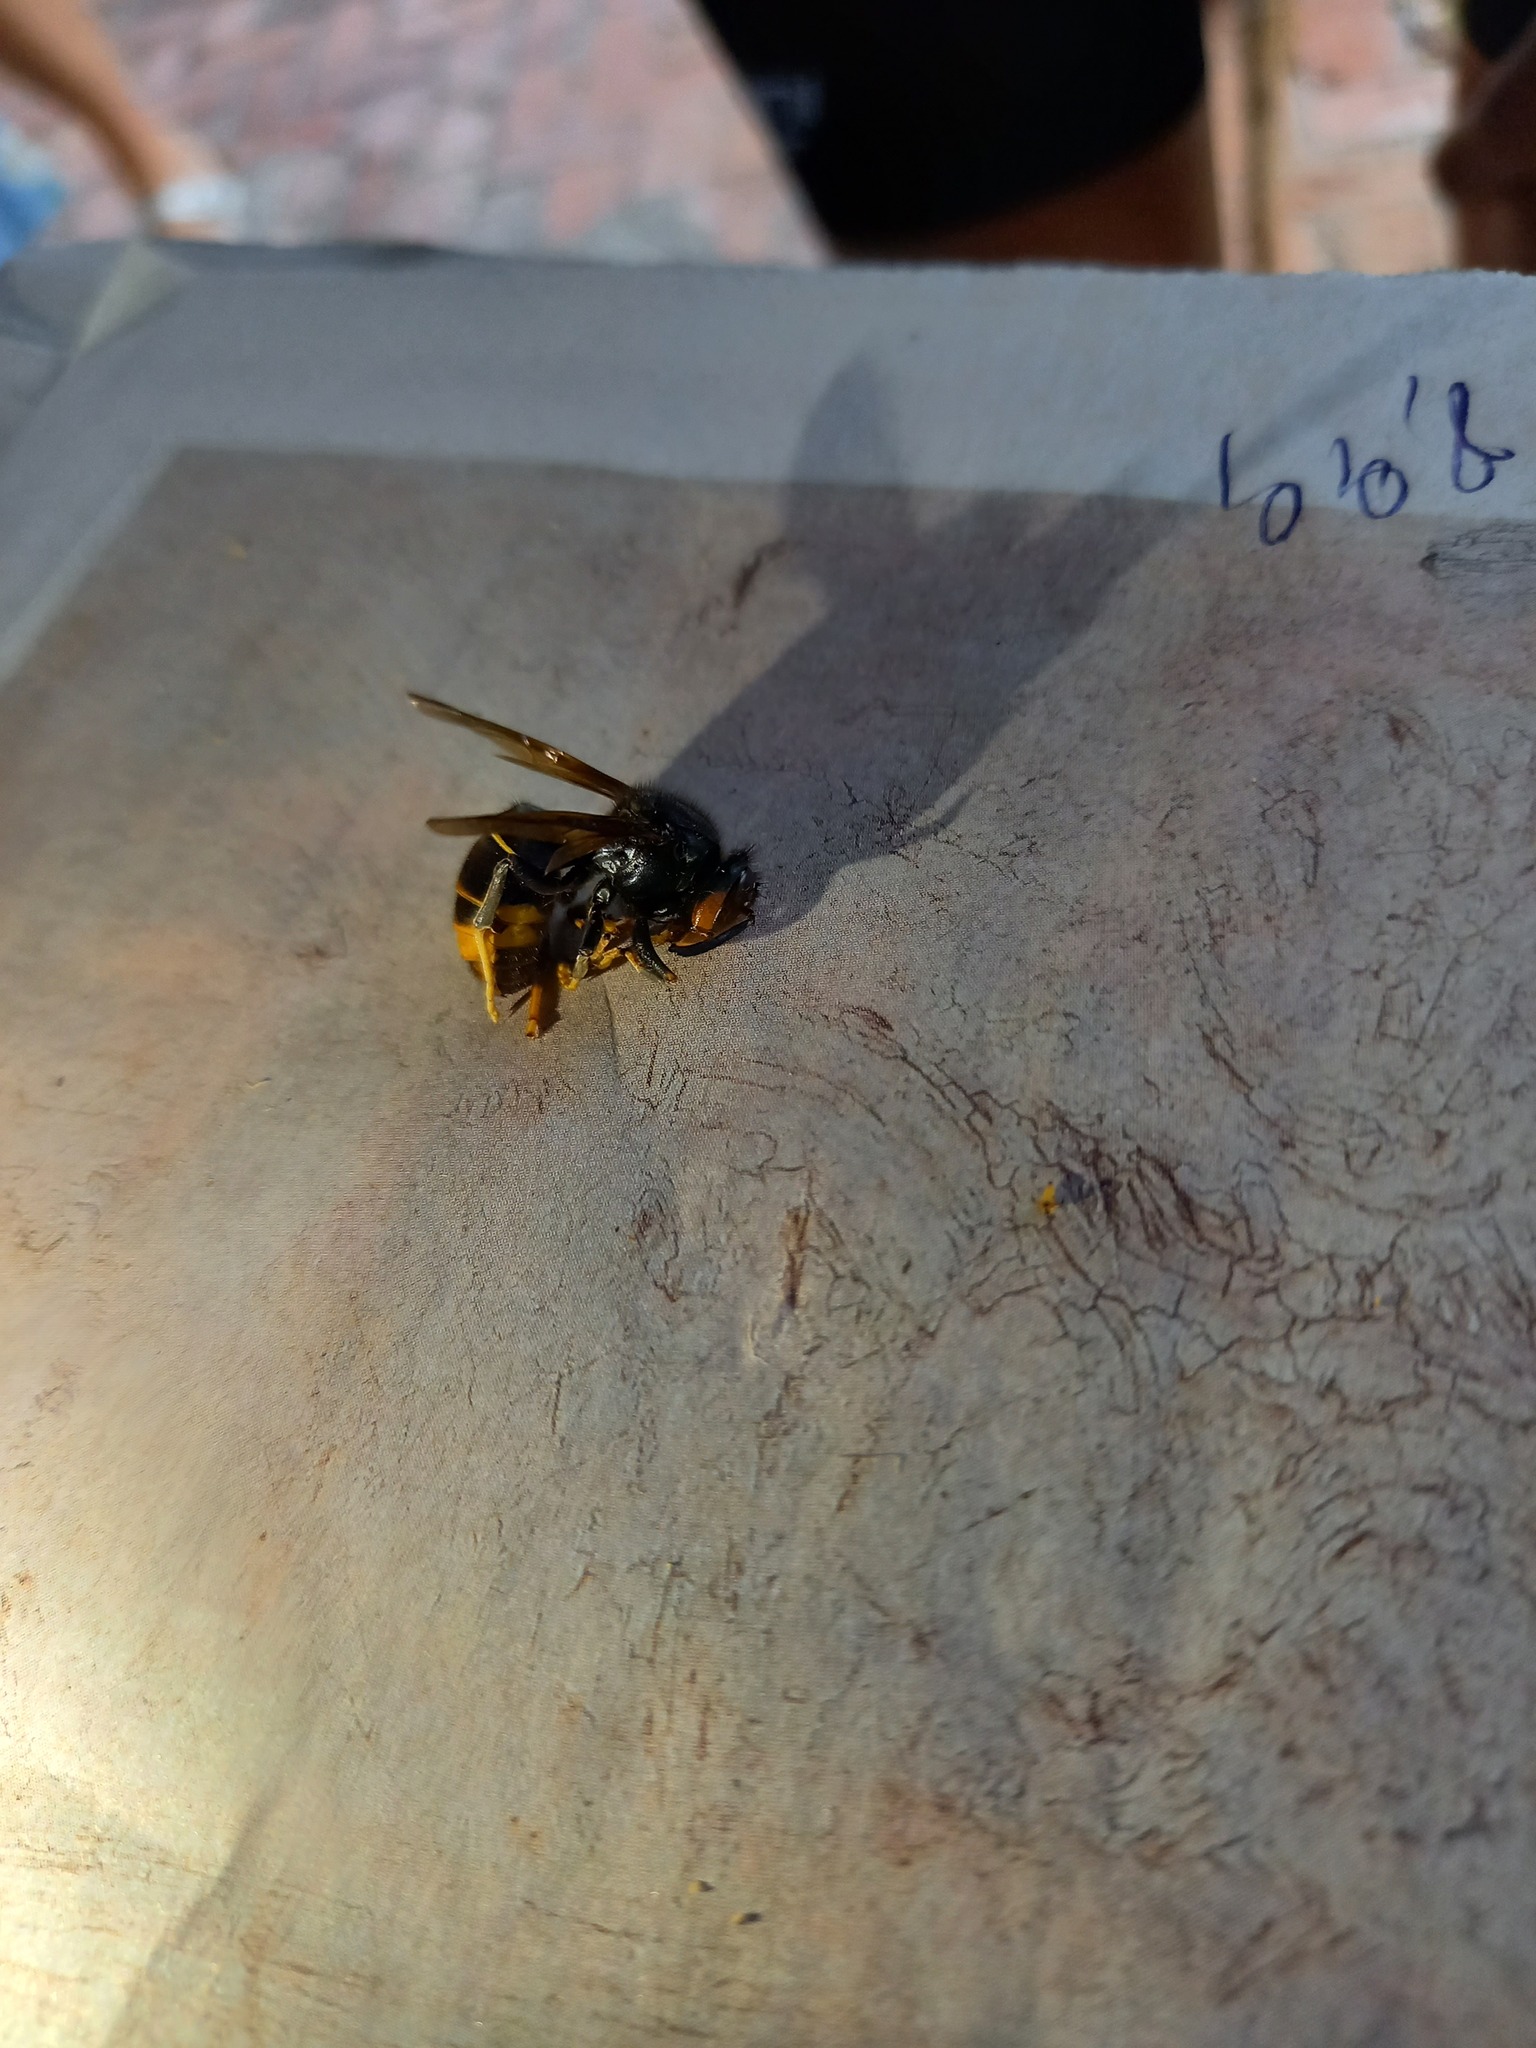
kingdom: Animalia
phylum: Arthropoda
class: Insecta
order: Hymenoptera
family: Vespidae
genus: Vespa
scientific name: Vespa velutina
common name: Asian hornet
